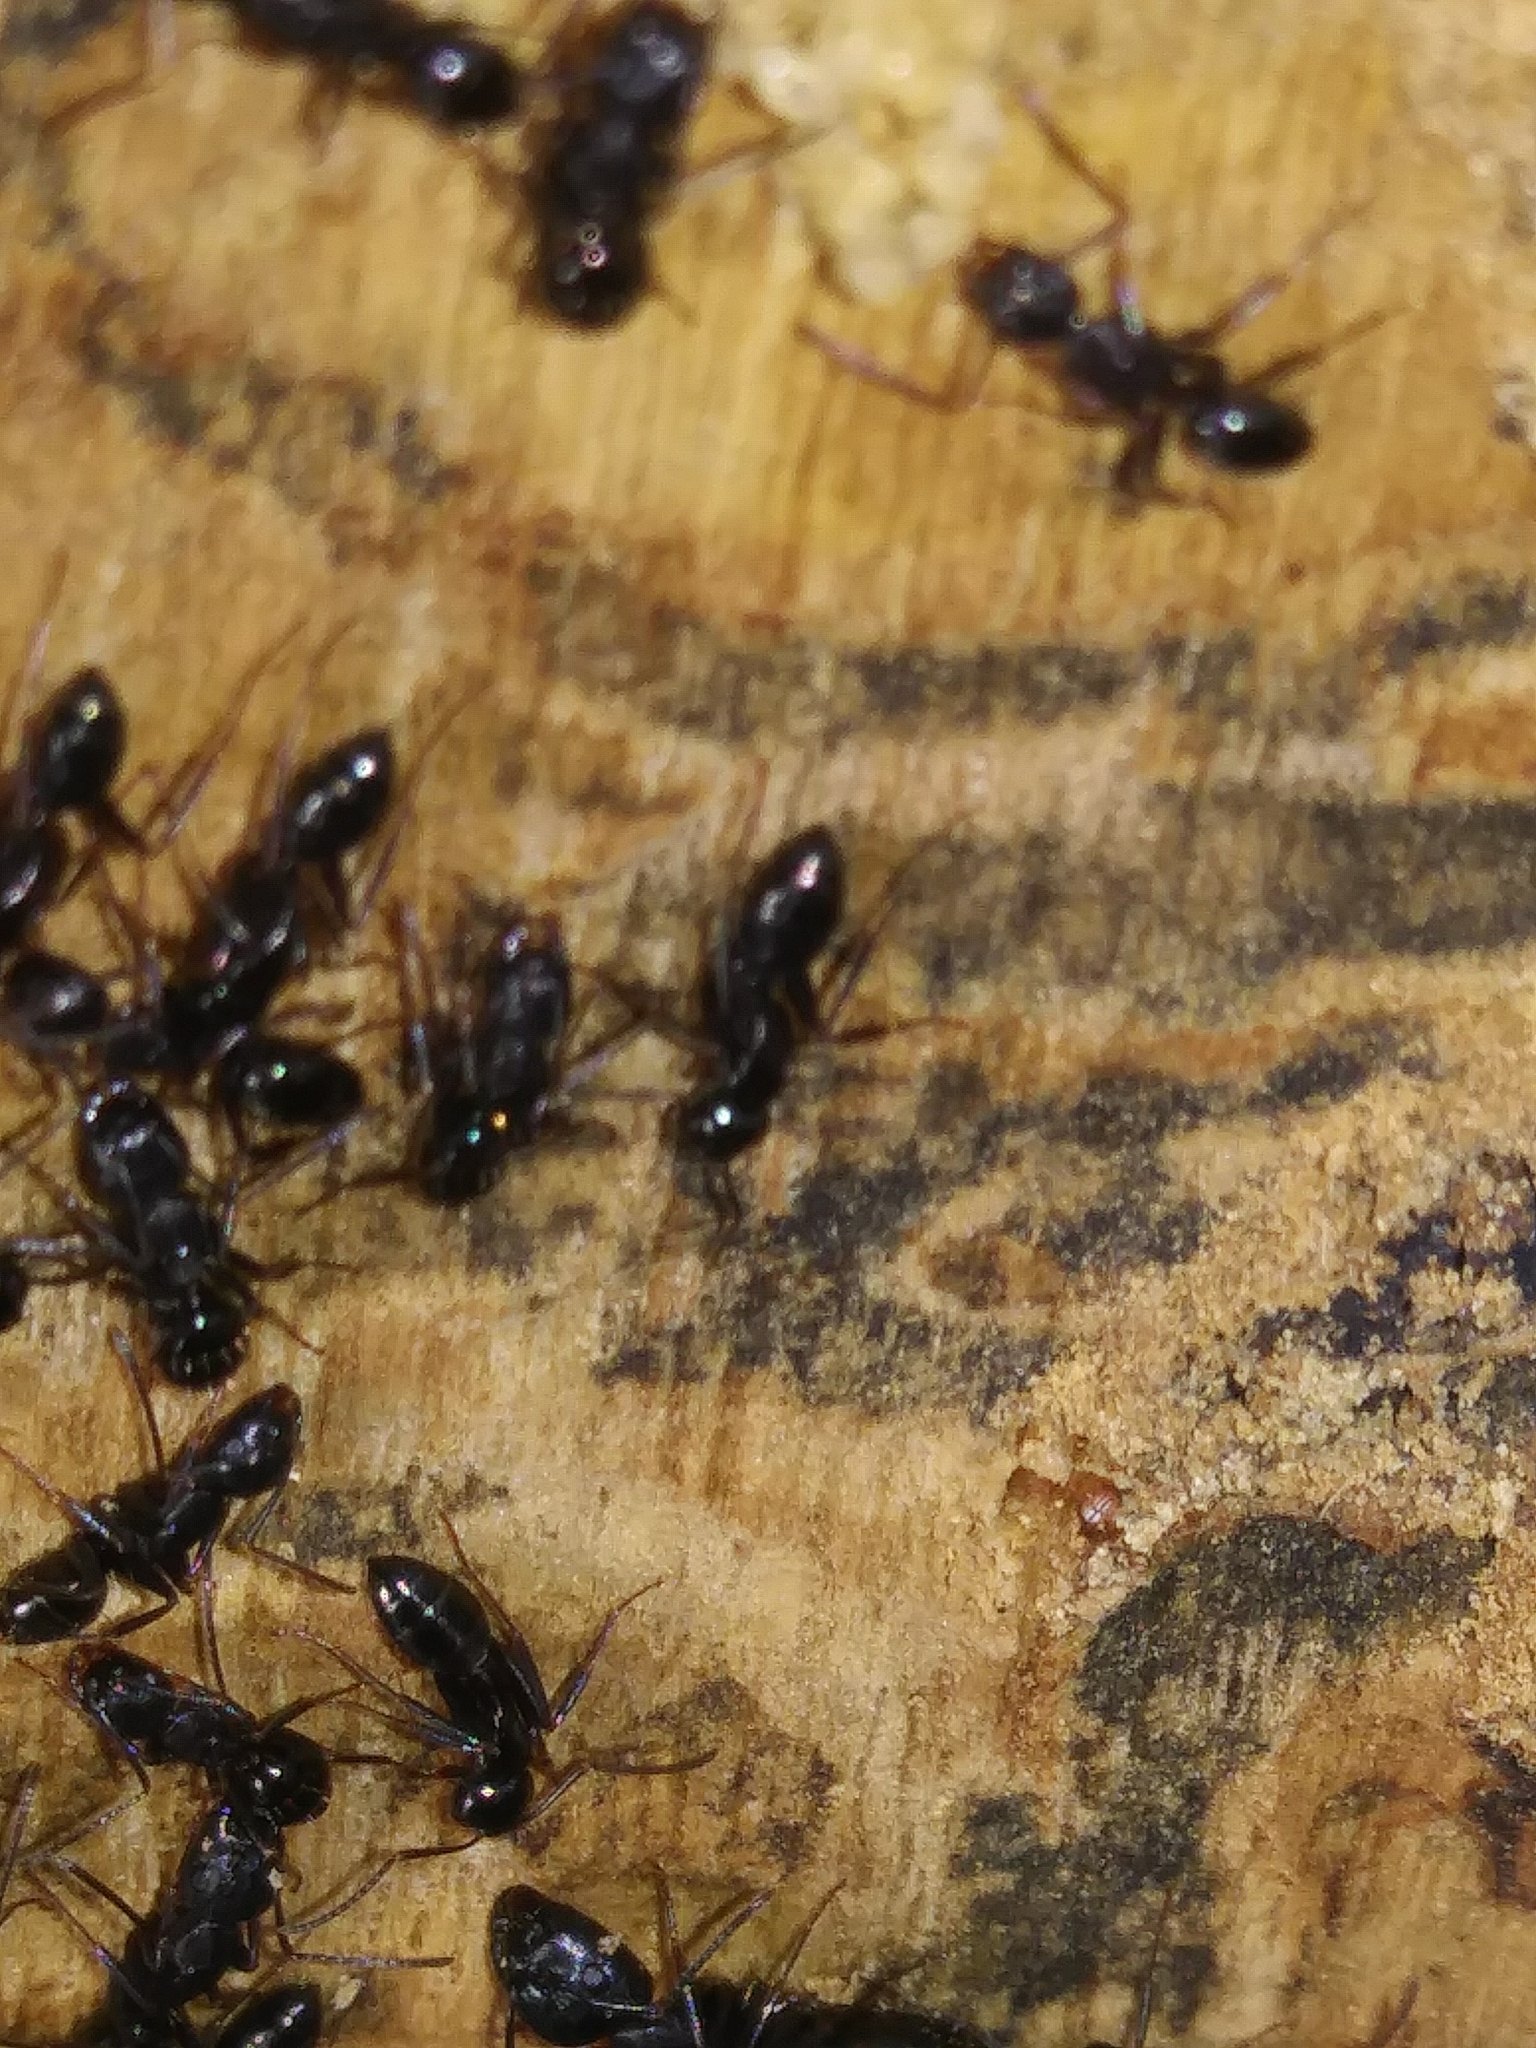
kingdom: Animalia
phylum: Arthropoda
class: Insecta
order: Hymenoptera
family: Formicidae
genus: Camponotus
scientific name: Camponotus nearcticus
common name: Smaller carpenter ant
